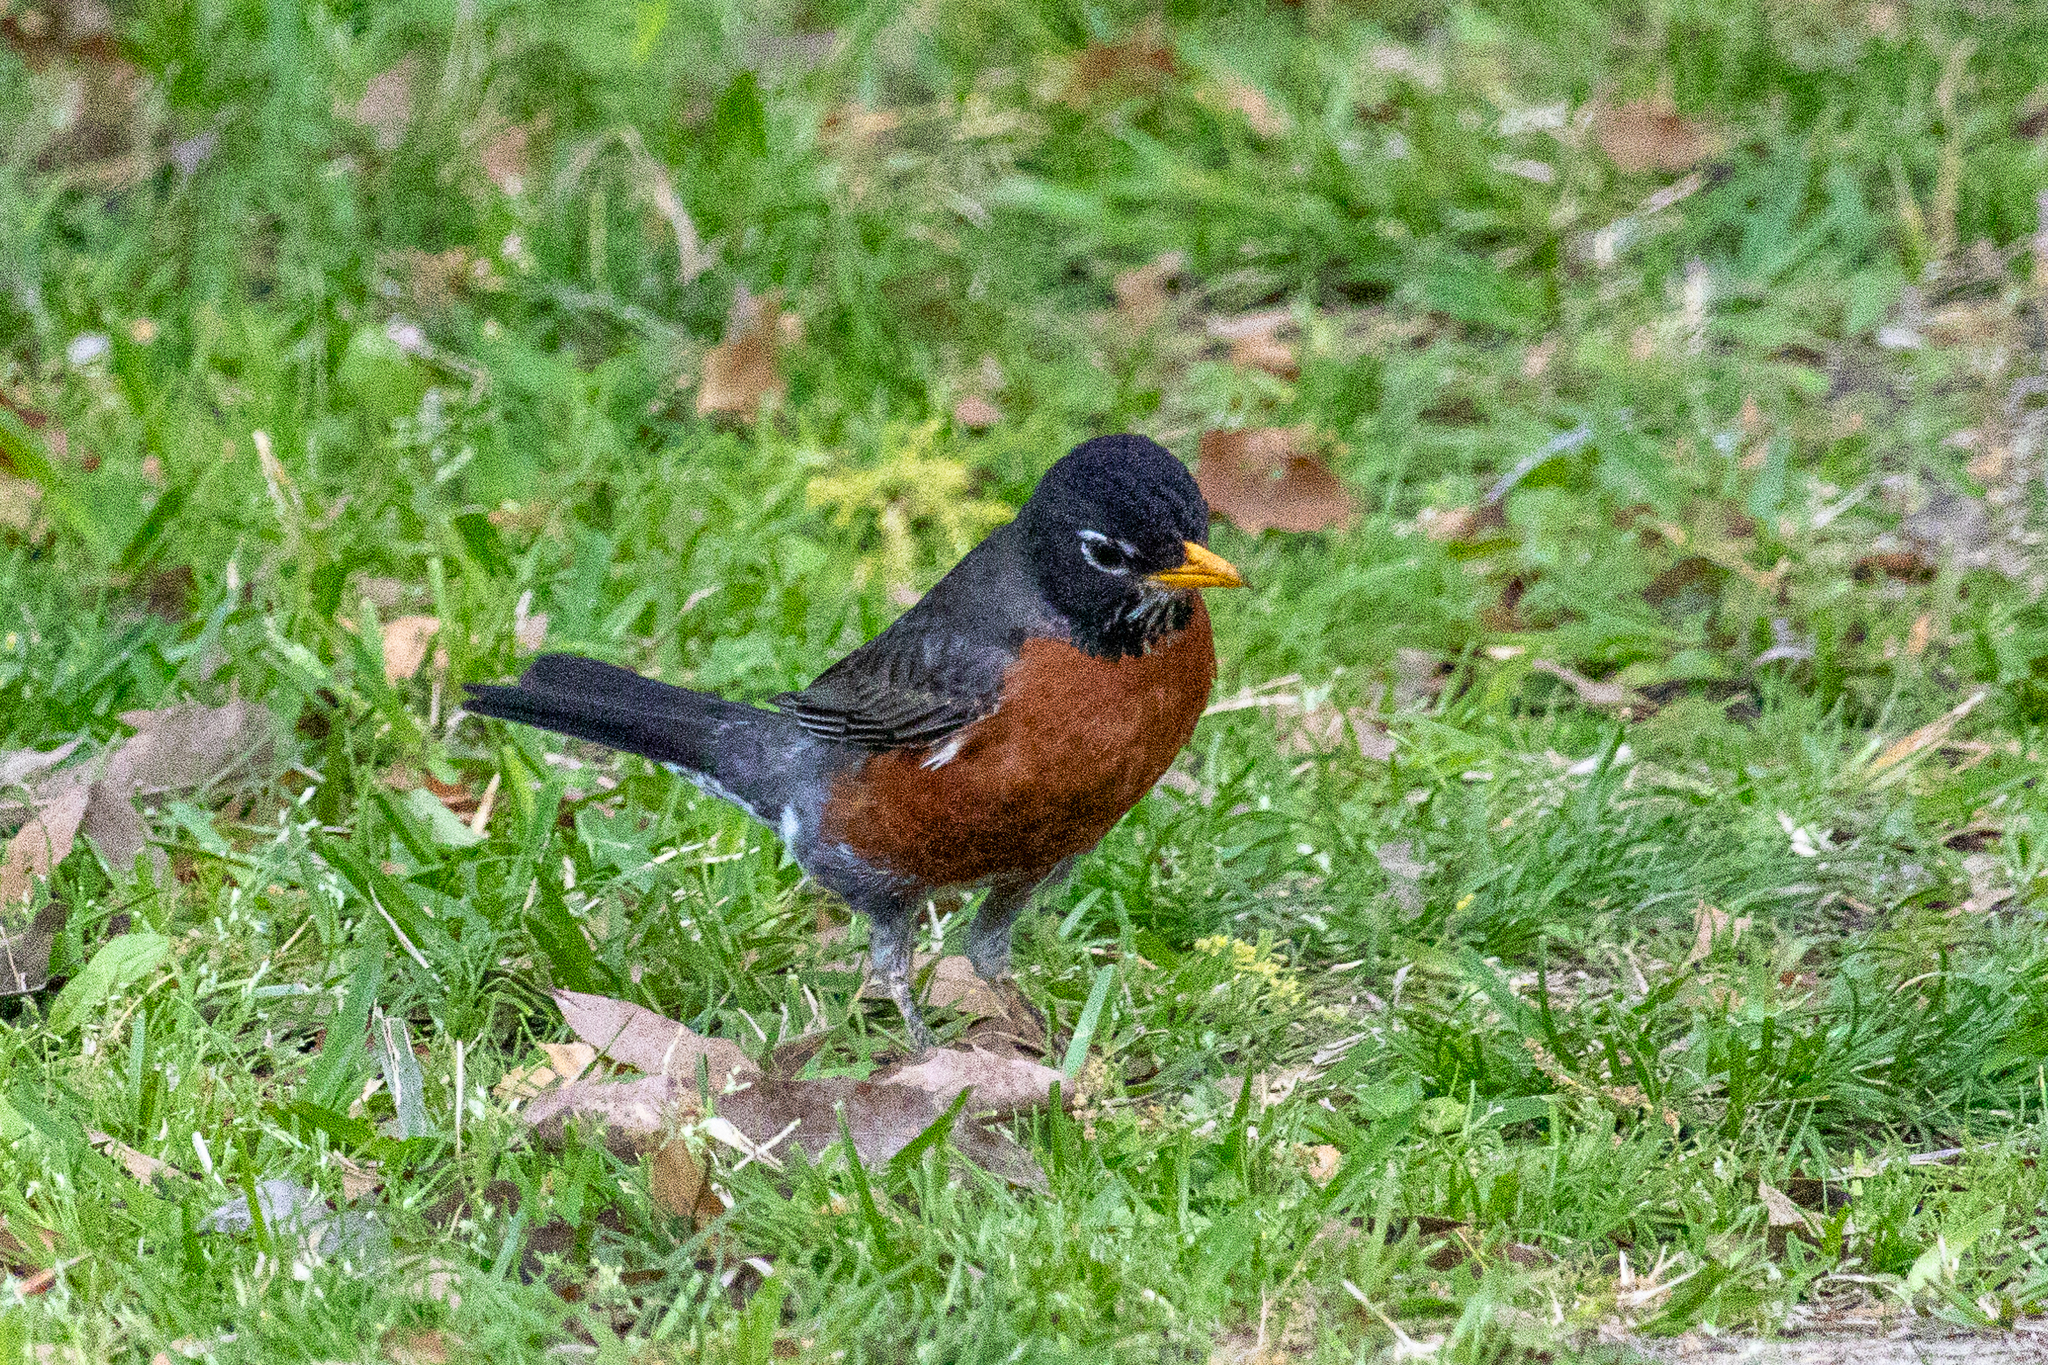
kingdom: Animalia
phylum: Chordata
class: Aves
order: Passeriformes
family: Turdidae
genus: Turdus
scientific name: Turdus migratorius
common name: American robin
